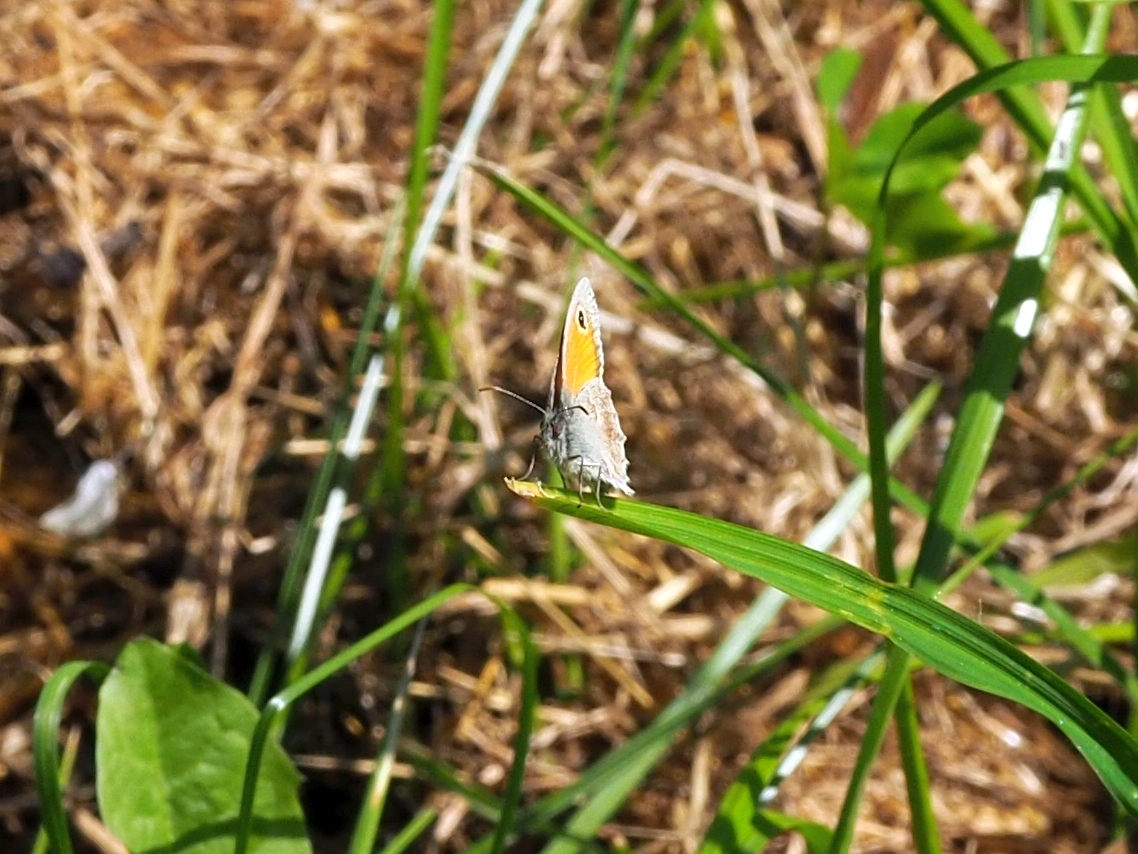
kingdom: Animalia
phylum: Arthropoda
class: Insecta
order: Lepidoptera
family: Nymphalidae
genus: Coenonympha
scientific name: Coenonympha pamphilus
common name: Small heath
